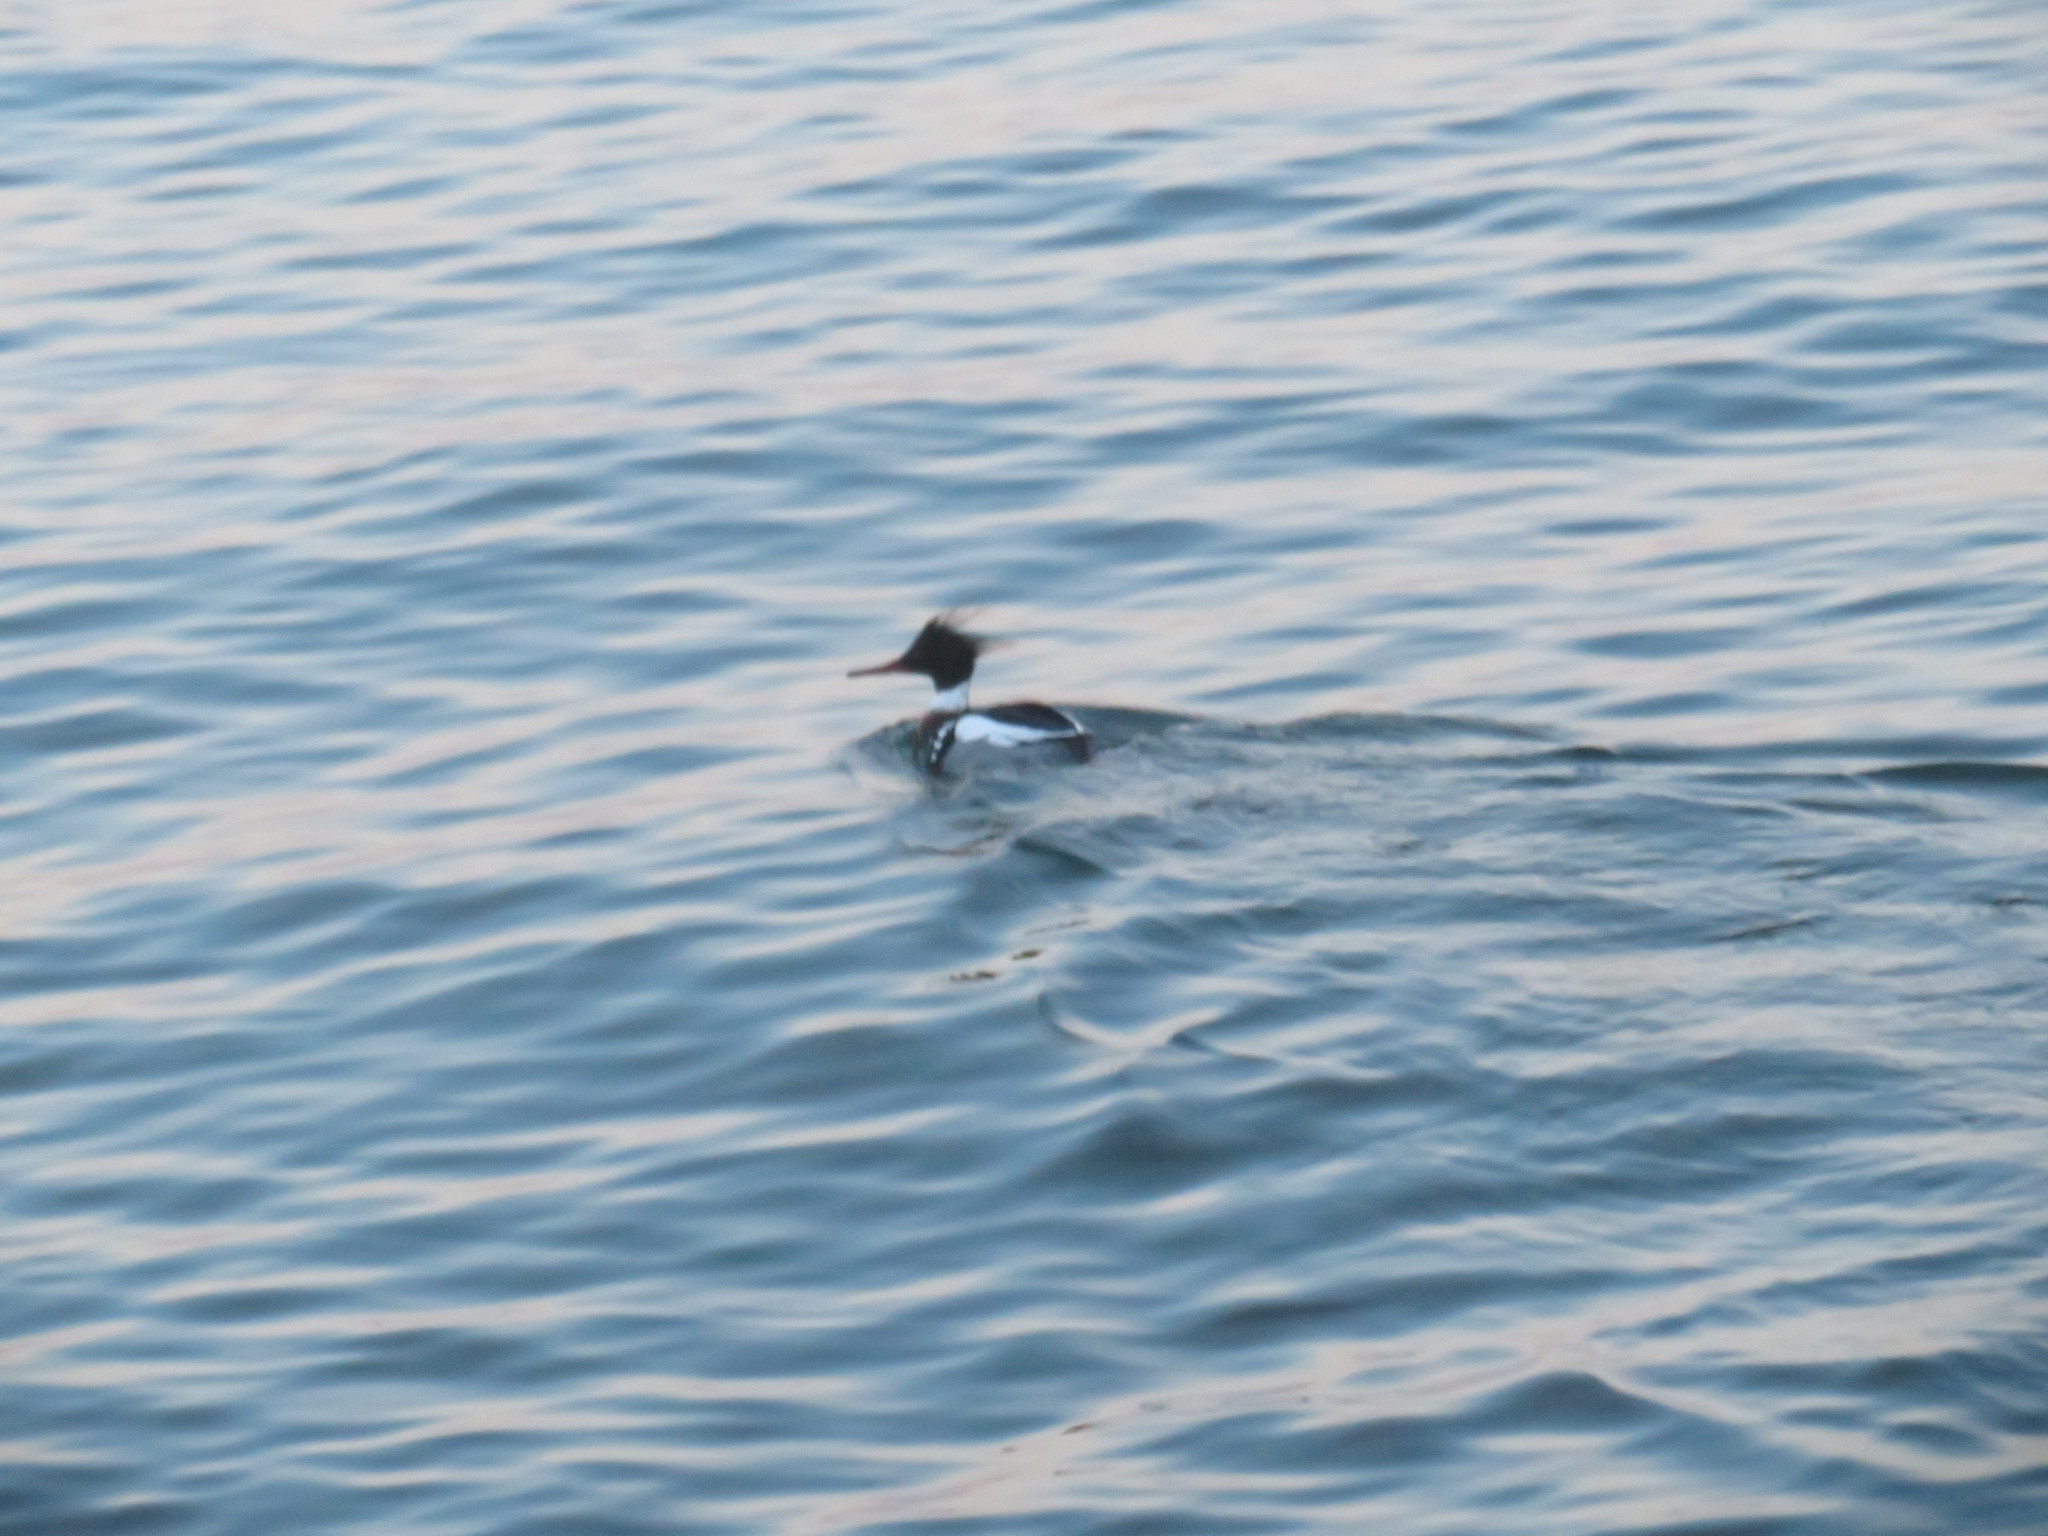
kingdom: Animalia
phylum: Chordata
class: Aves
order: Anseriformes
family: Anatidae
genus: Mergus
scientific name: Mergus serrator
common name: Red-breasted merganser
